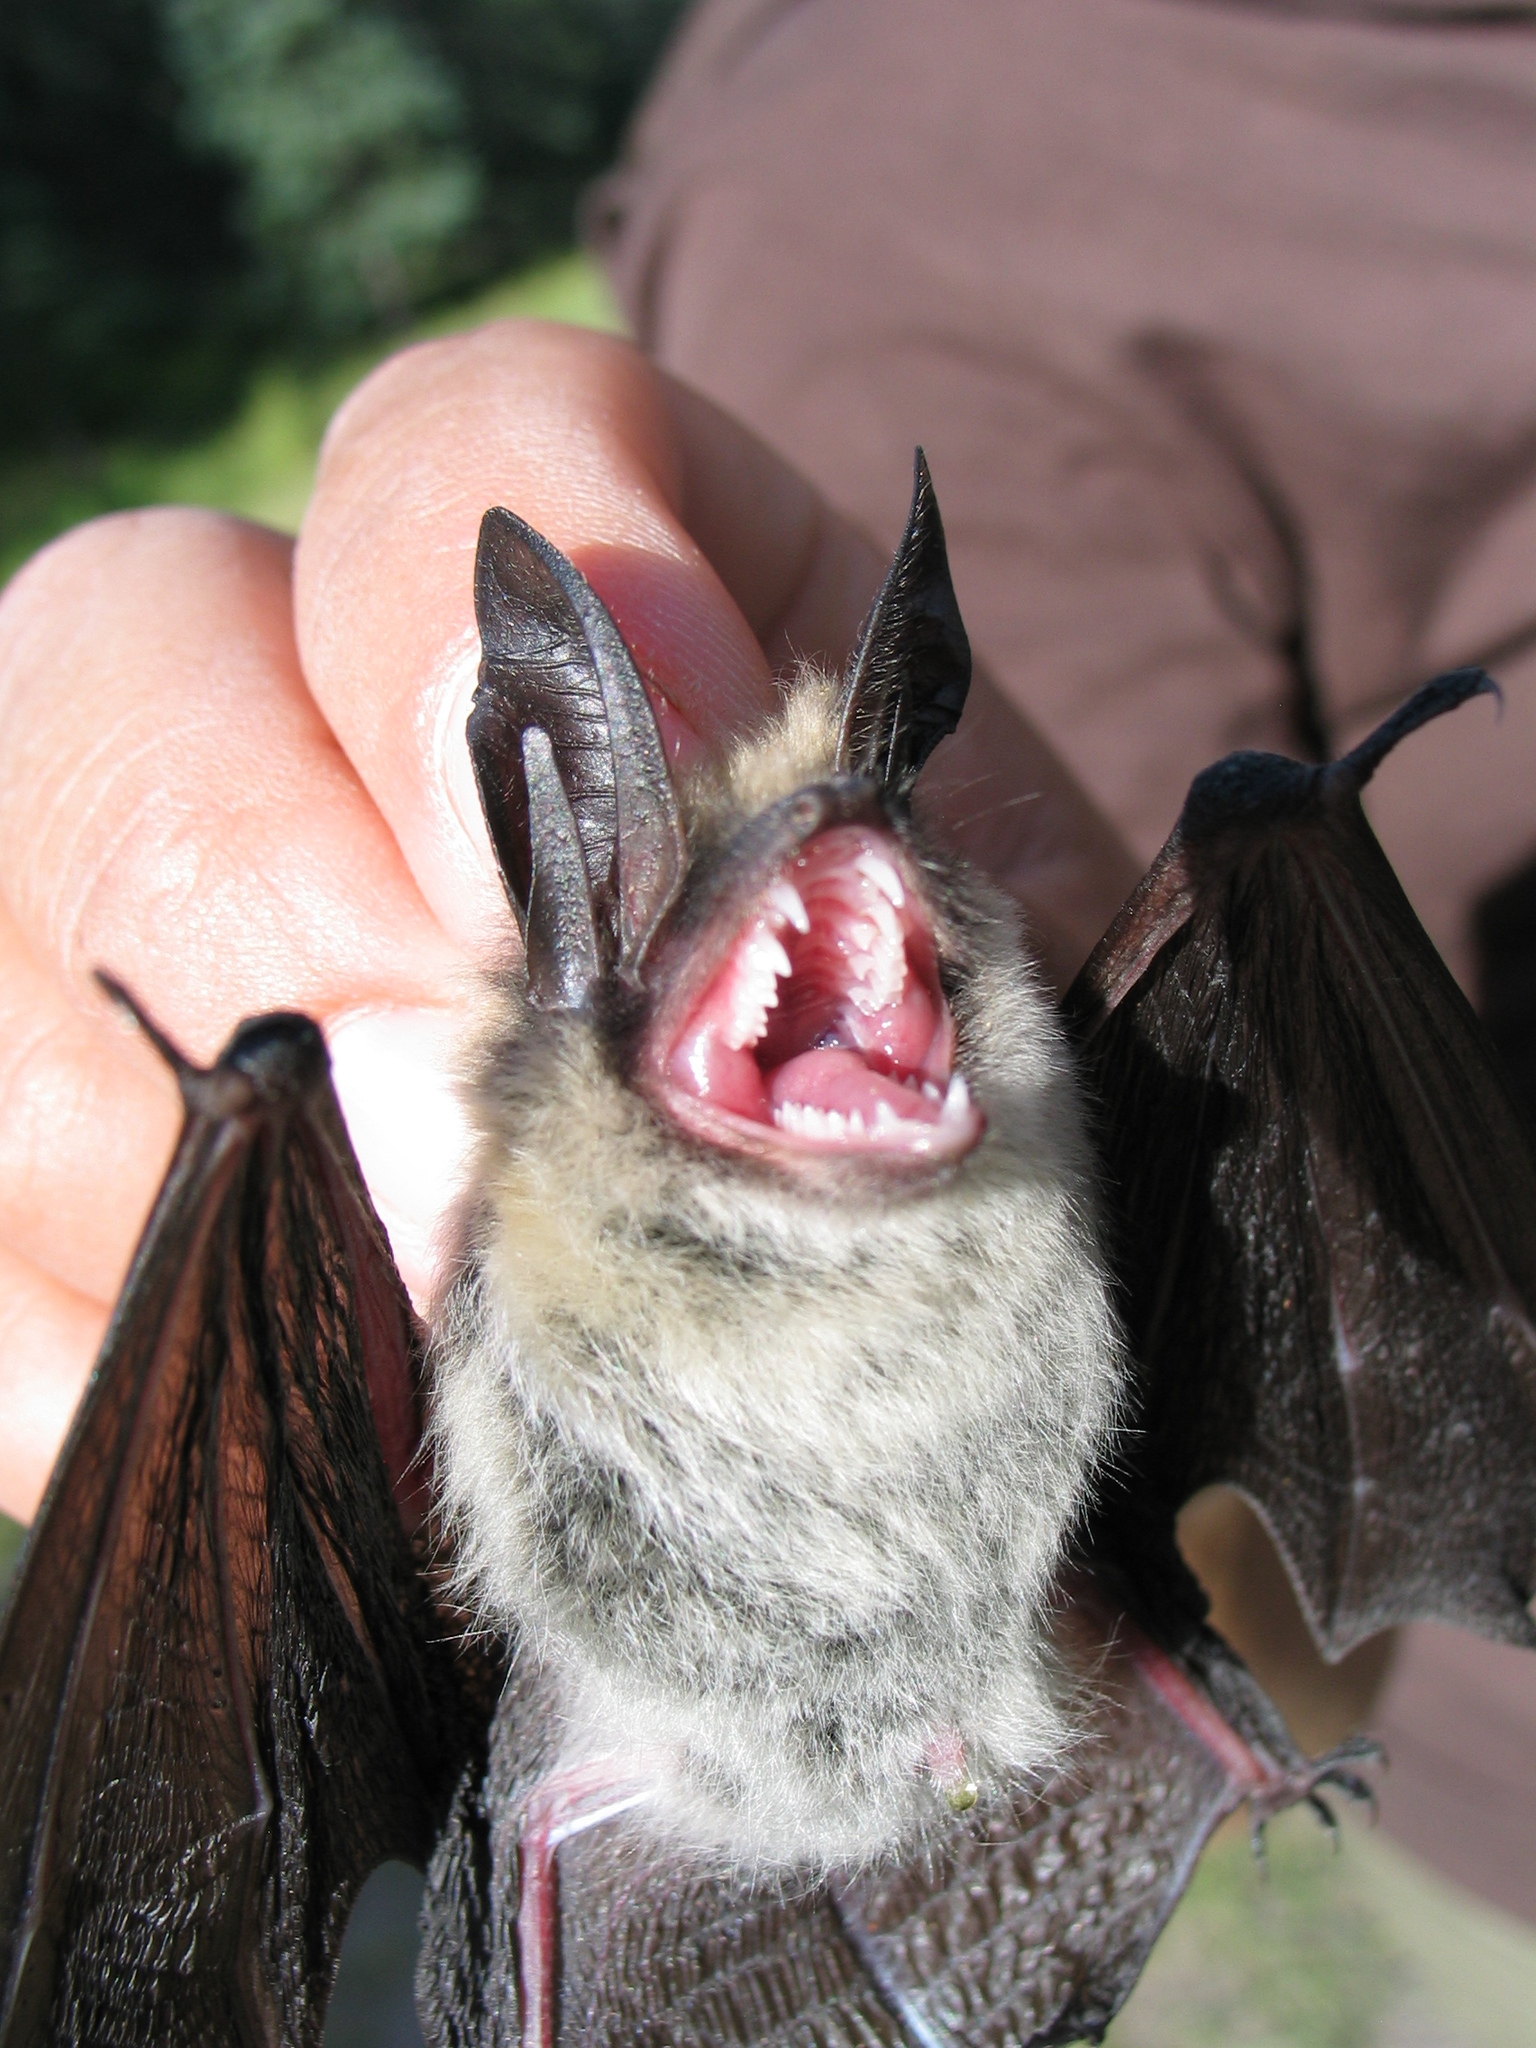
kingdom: Animalia
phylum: Chordata
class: Mammalia
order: Chiroptera
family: Vespertilionidae
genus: Myotis
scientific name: Myotis evotis
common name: Long-eared myotis
